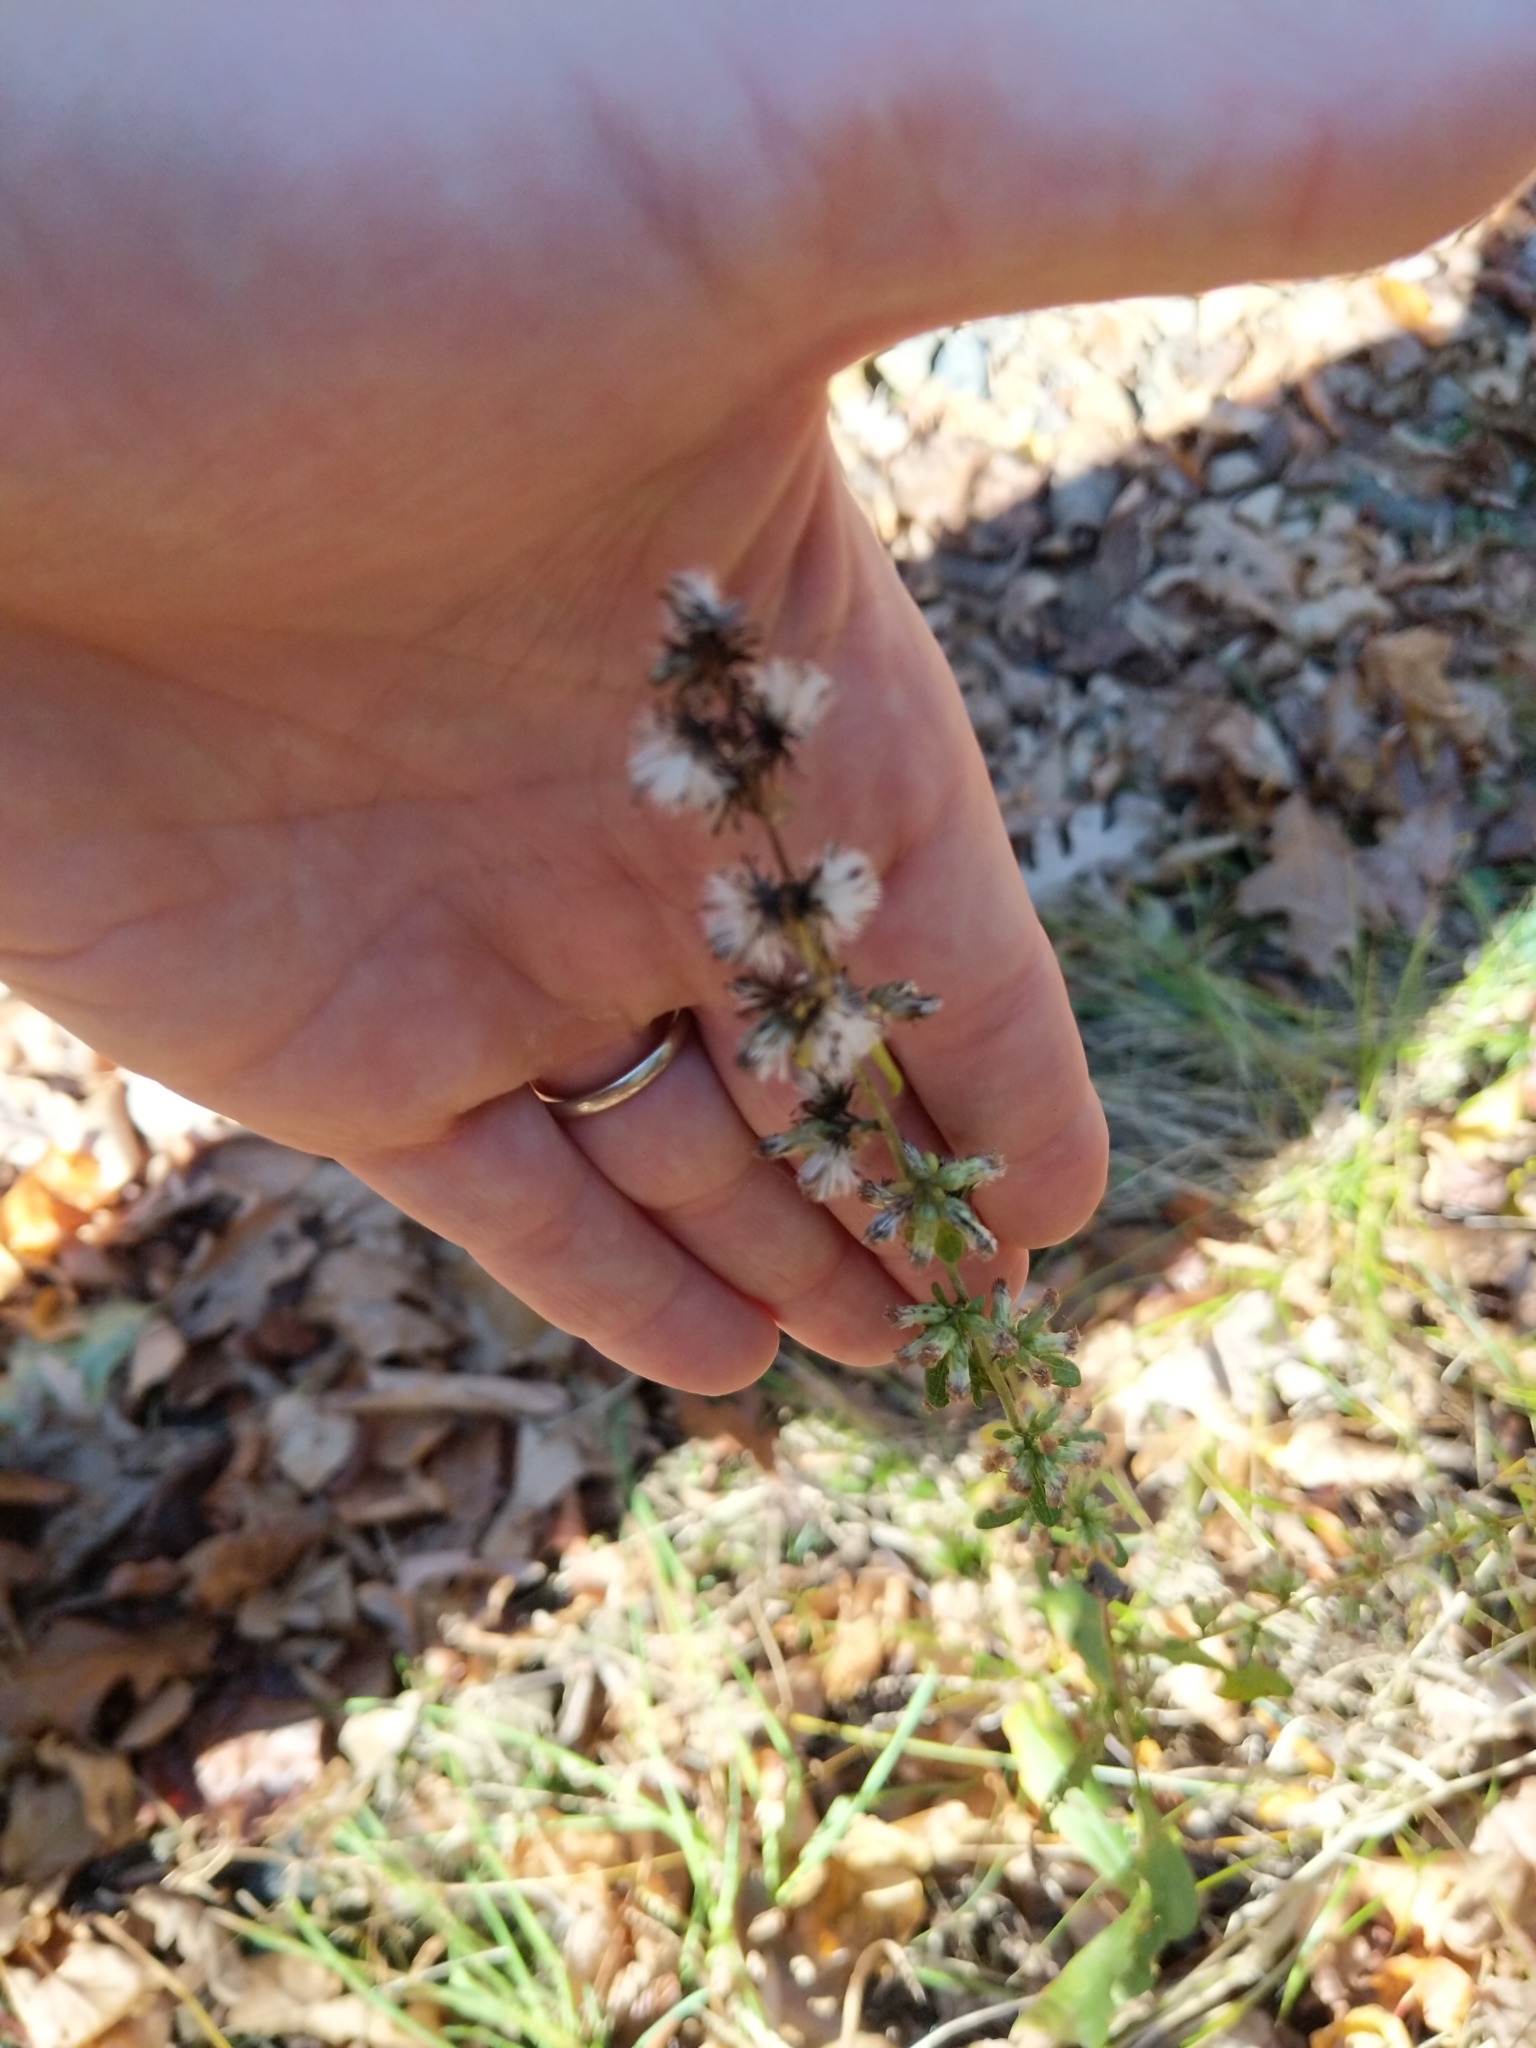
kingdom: Plantae
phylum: Tracheophyta
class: Magnoliopsida
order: Asterales
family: Asteraceae
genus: Solidago
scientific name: Solidago bicolor
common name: Silverrod
